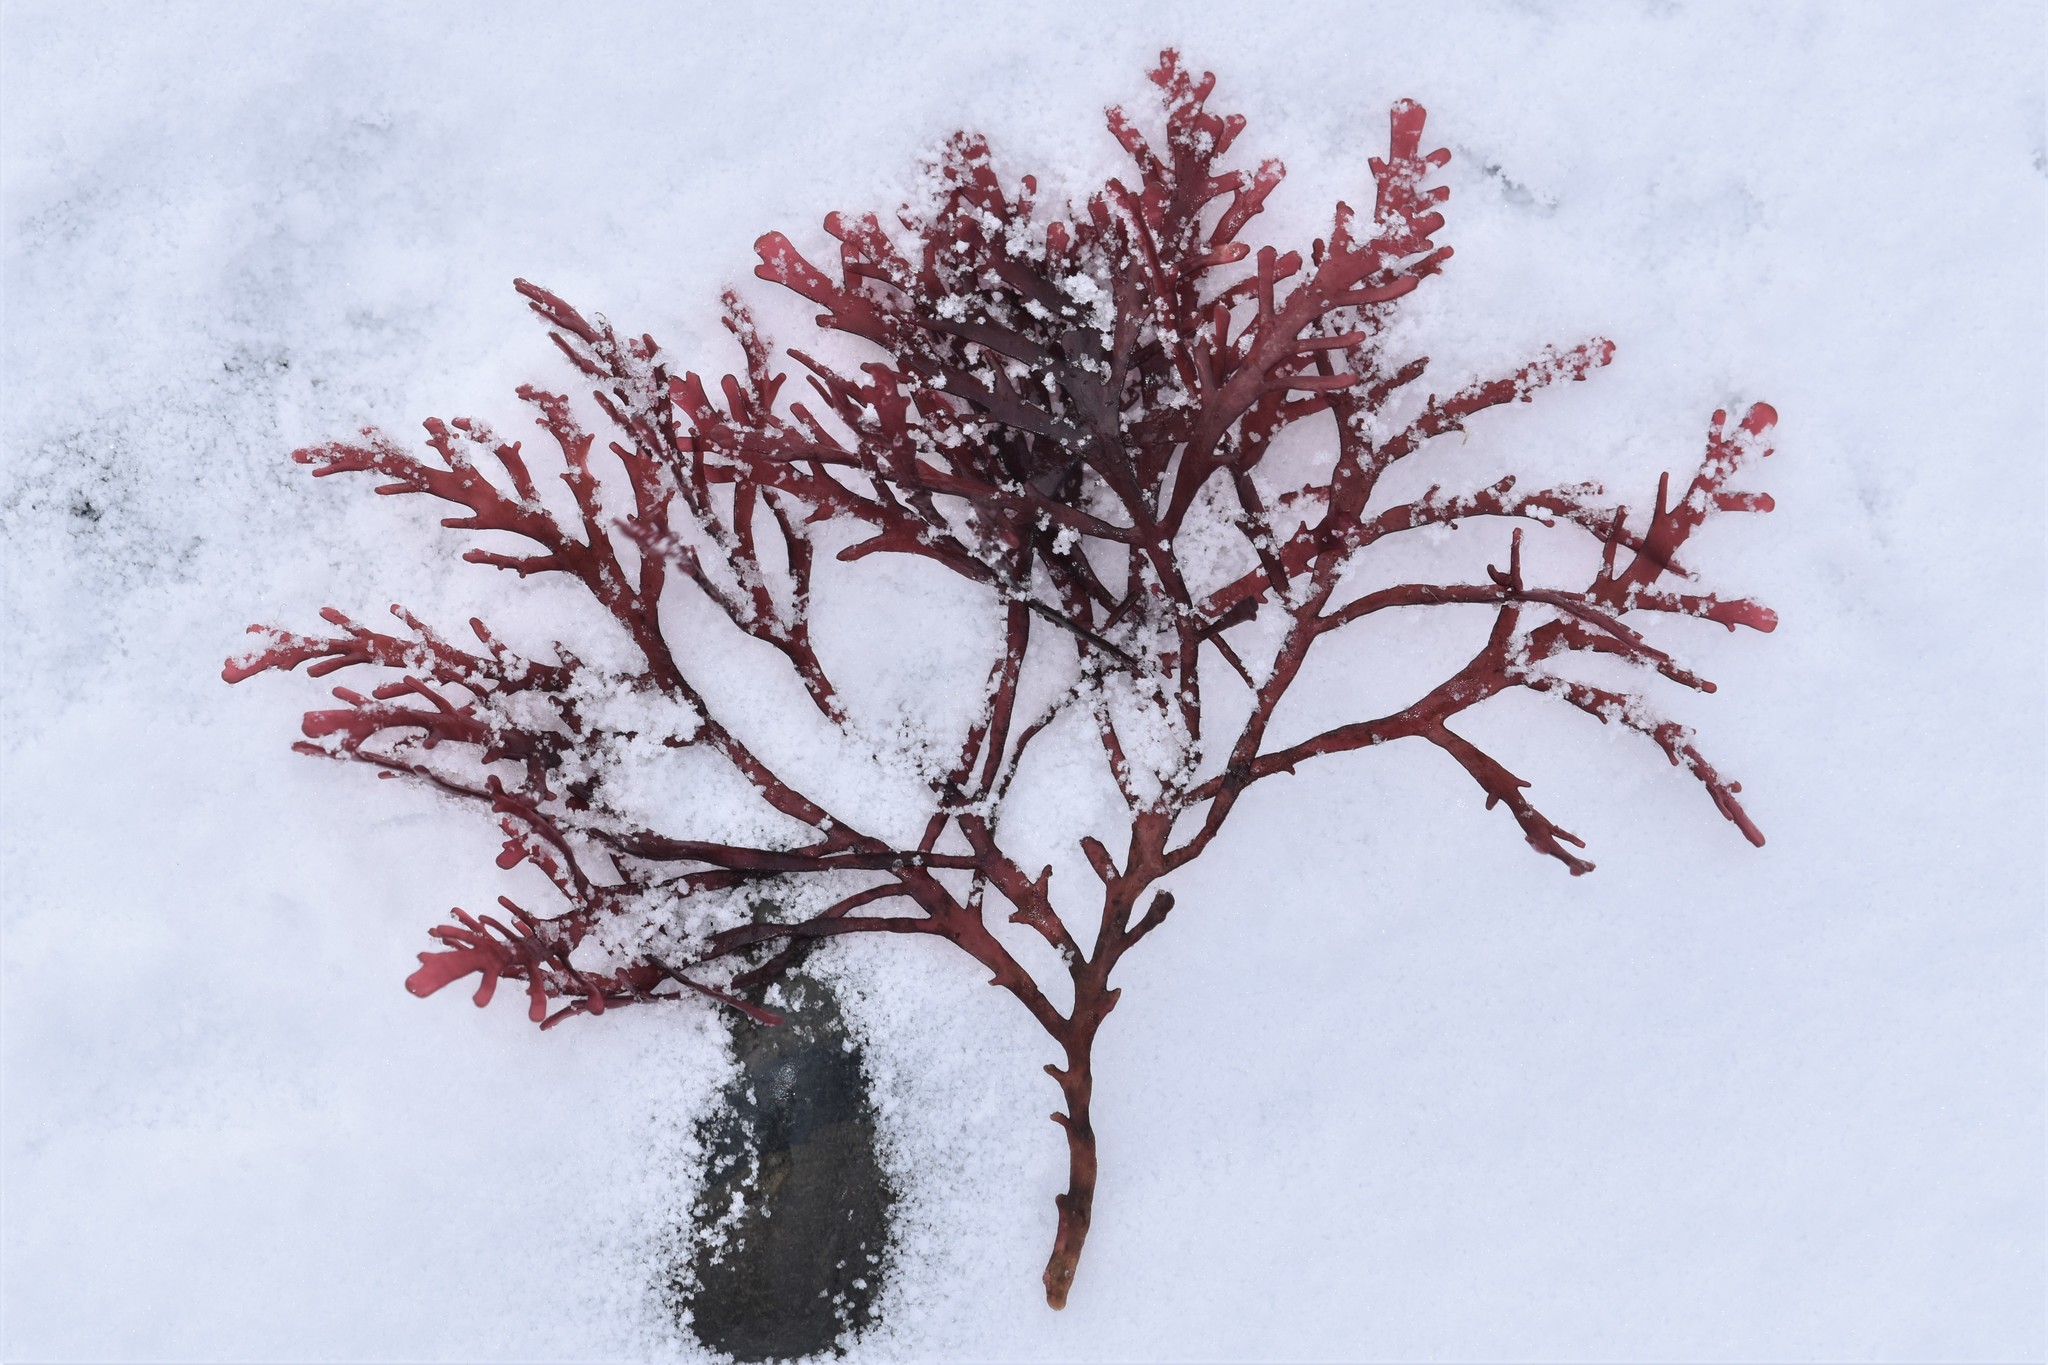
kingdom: Plantae
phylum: Rhodophyta
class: Florideophyceae
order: Ceramiales
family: Rhodomelaceae
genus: Osmundea
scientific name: Osmundea spectabilis
